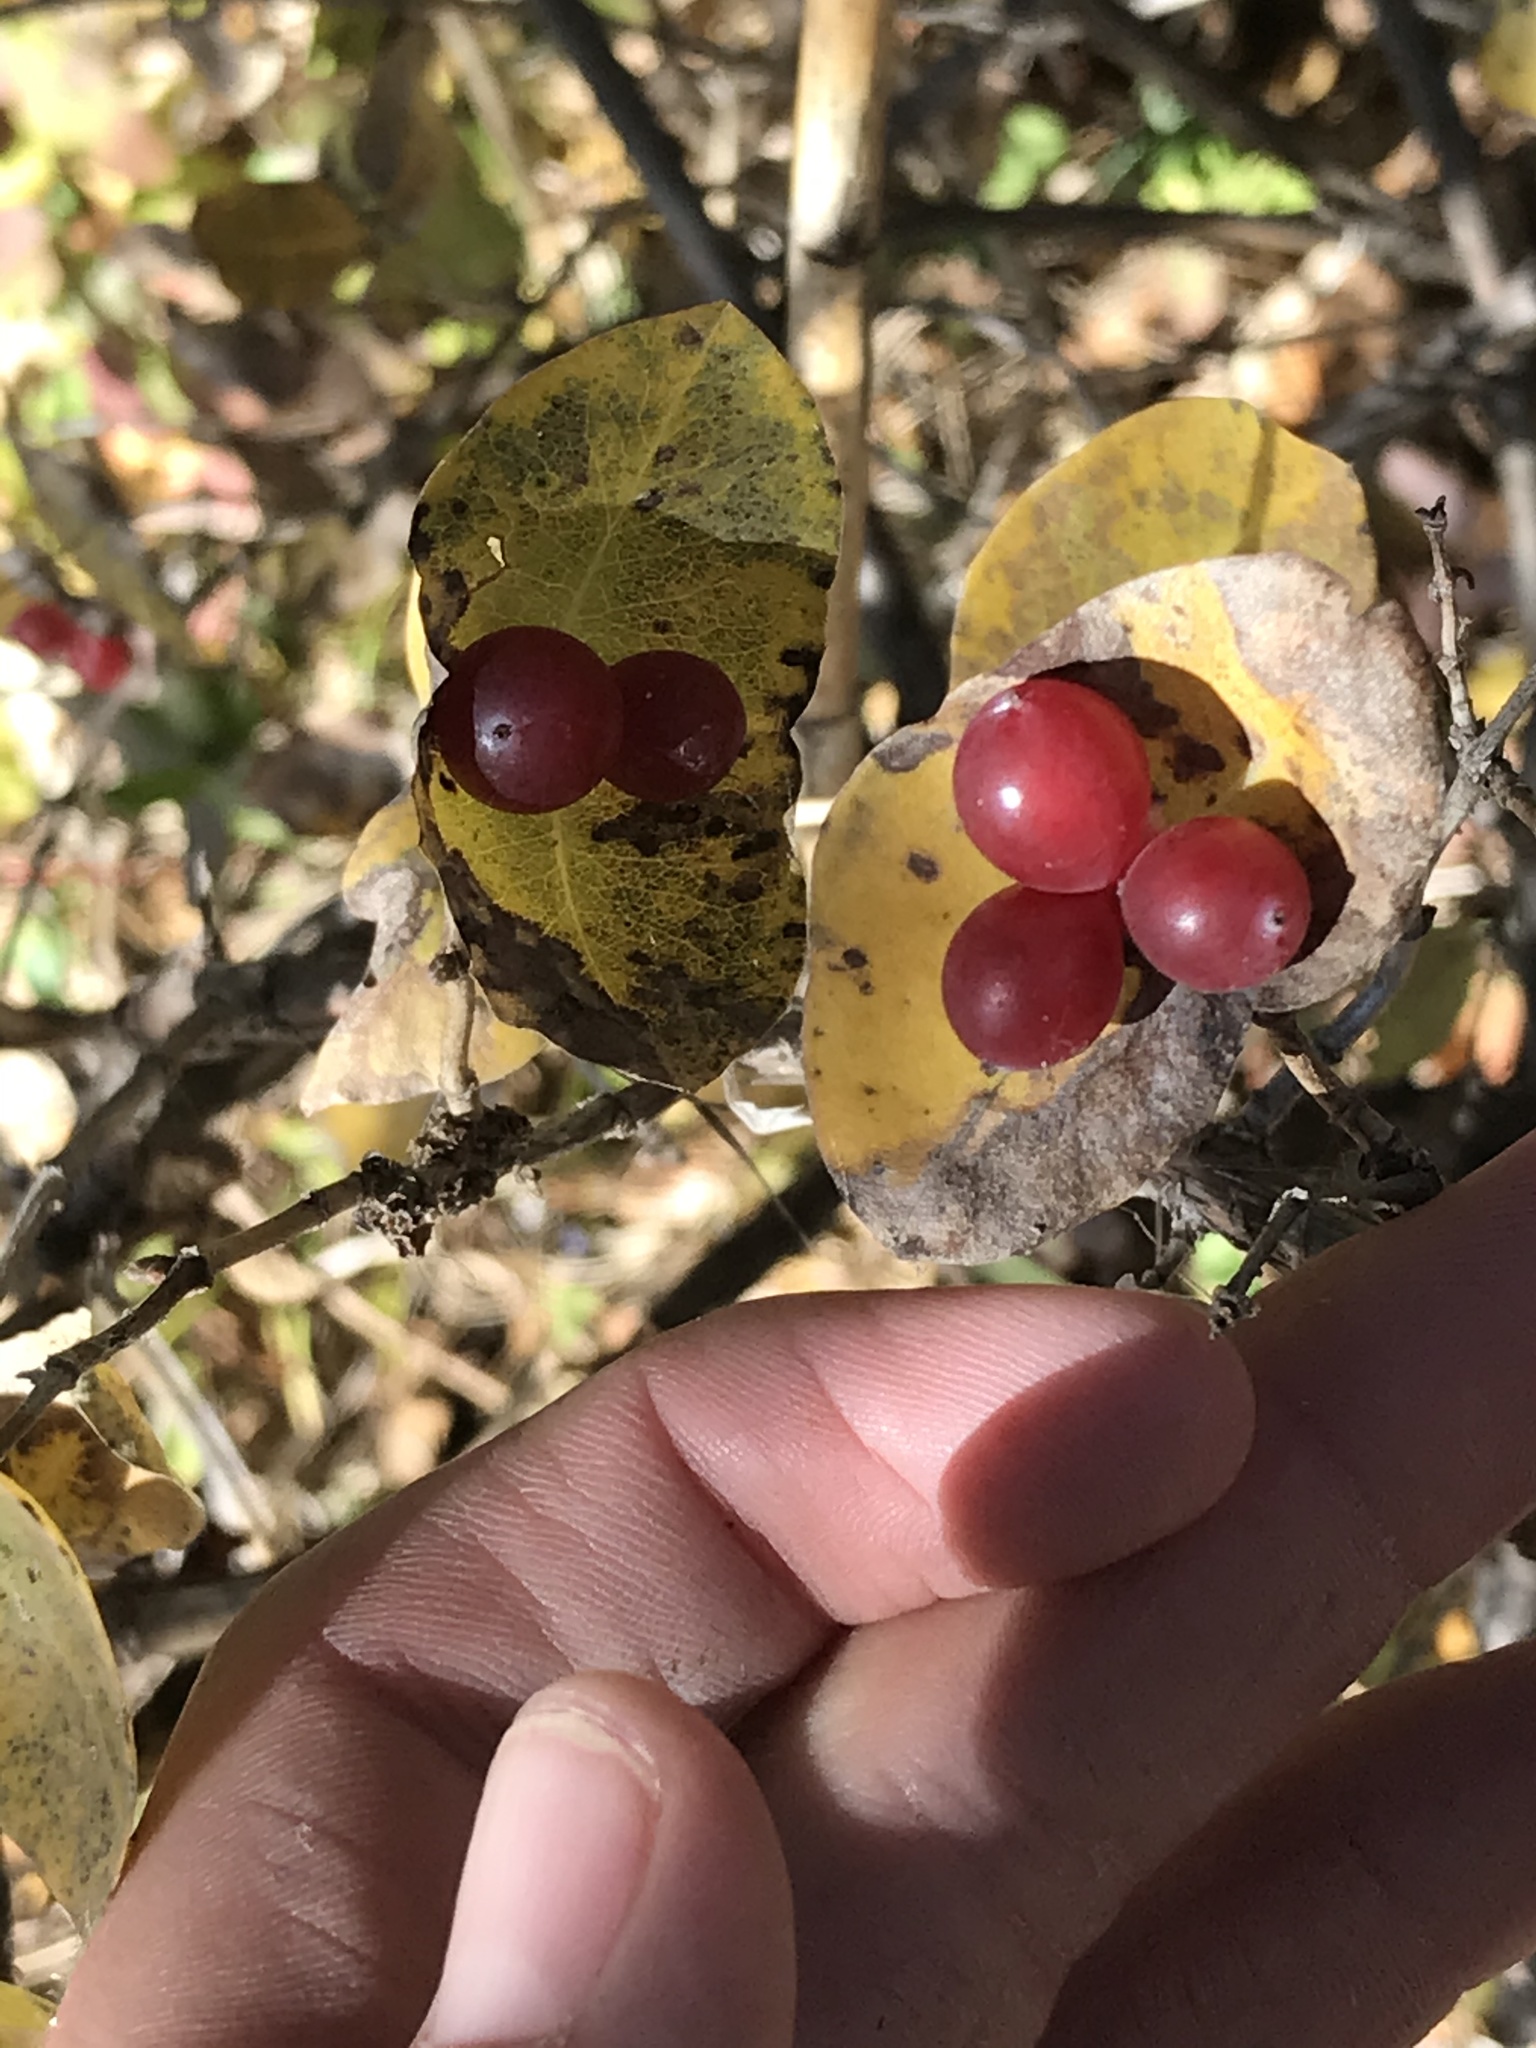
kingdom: Plantae
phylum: Tracheophyta
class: Magnoliopsida
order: Dipsacales
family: Caprifoliaceae
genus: Lonicera
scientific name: Lonicera albiflora
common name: White honeysuckle
